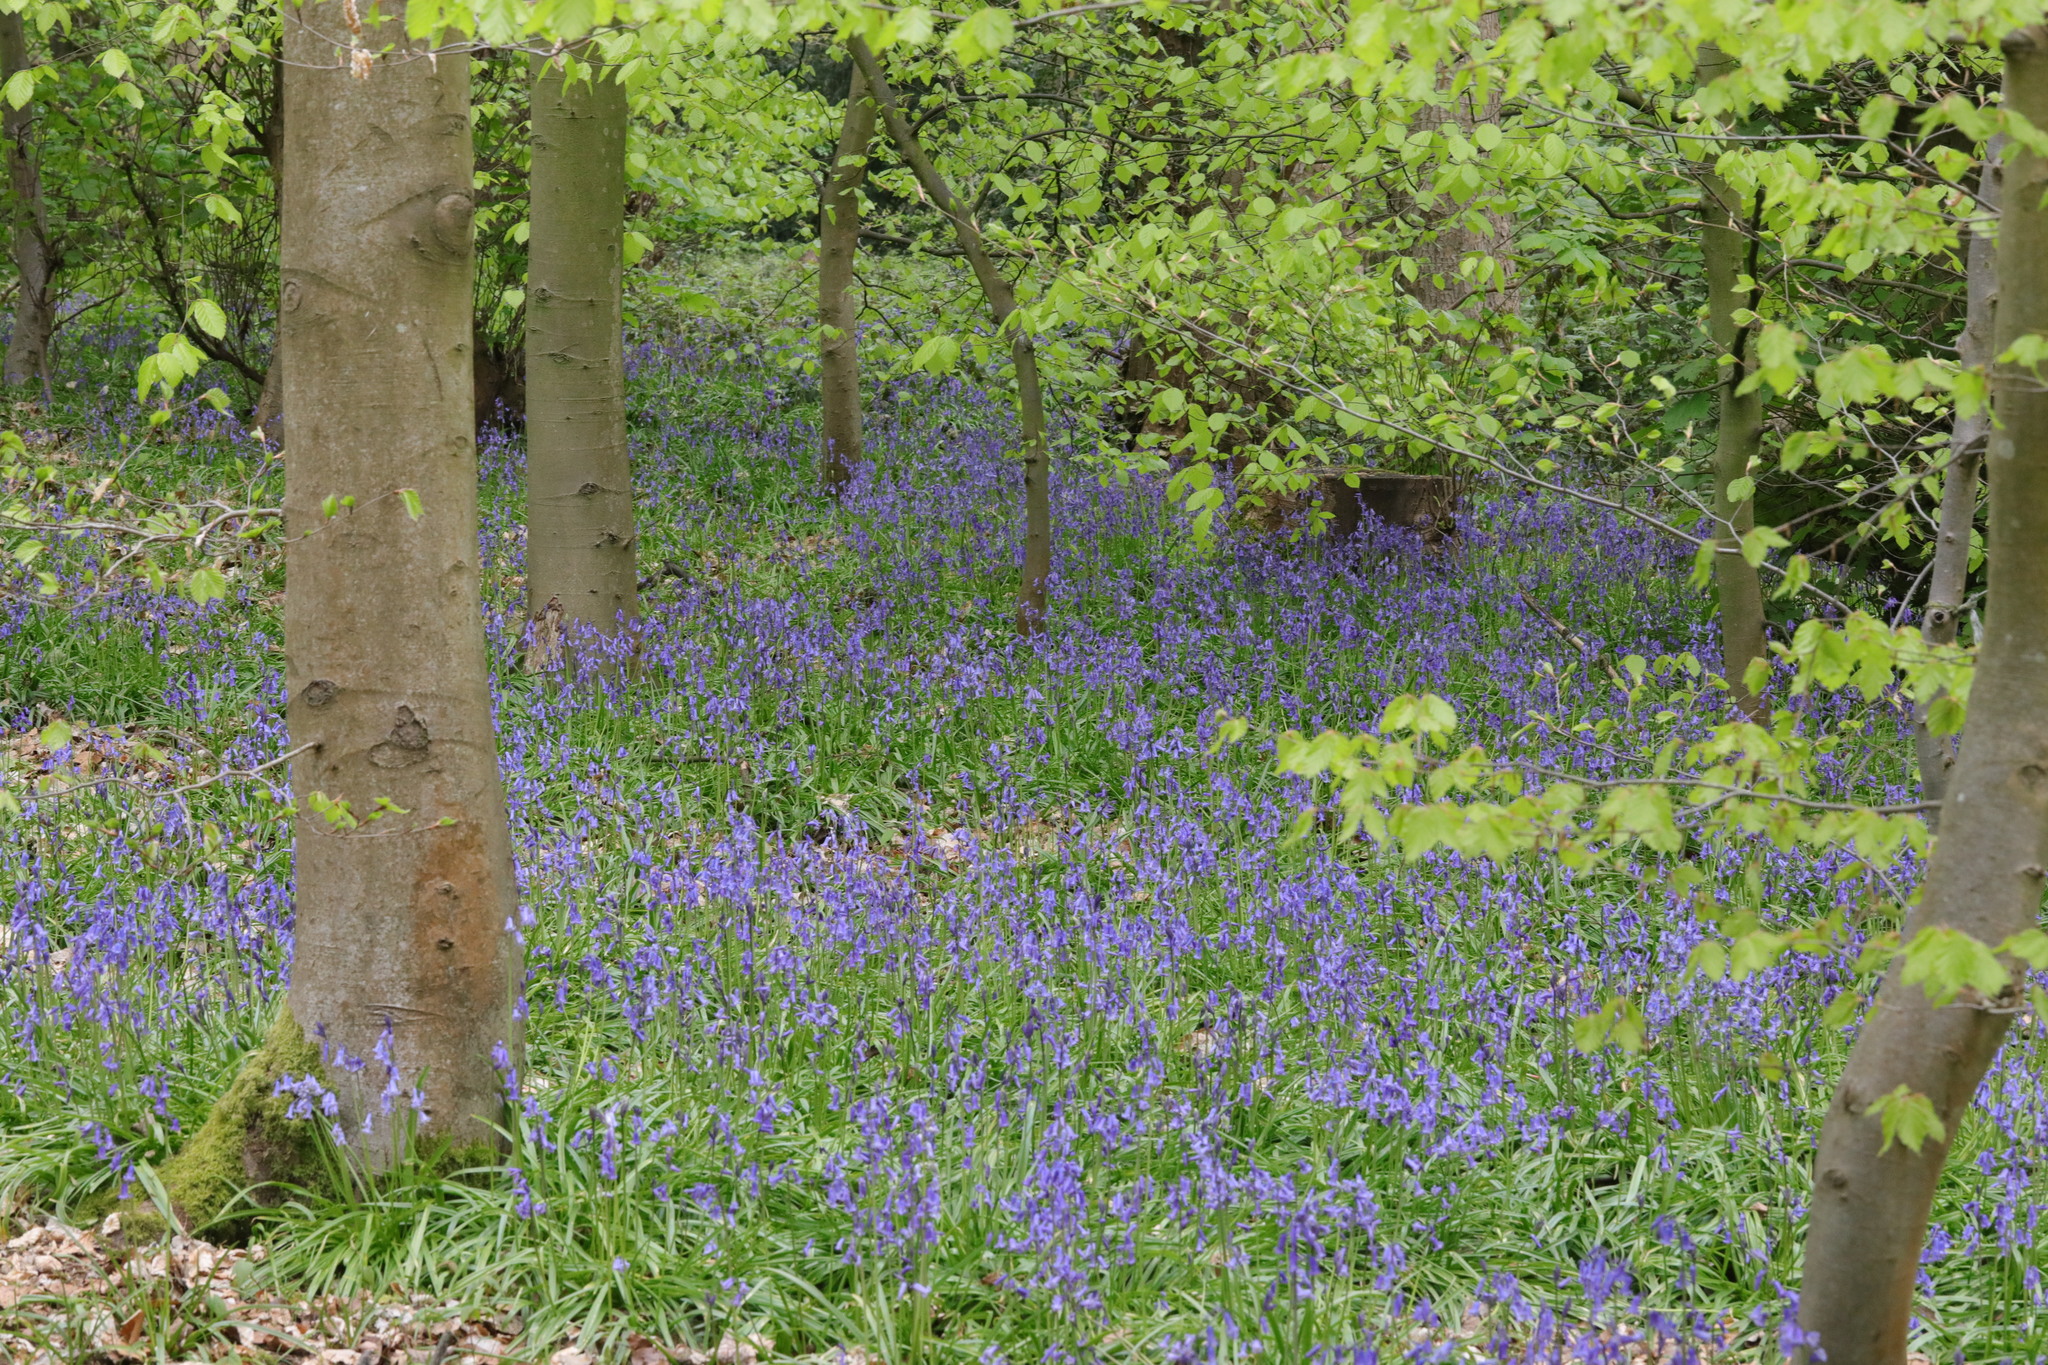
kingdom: Plantae
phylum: Tracheophyta
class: Liliopsida
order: Asparagales
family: Asparagaceae
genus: Hyacinthoides
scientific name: Hyacinthoides non-scripta
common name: Bluebell
